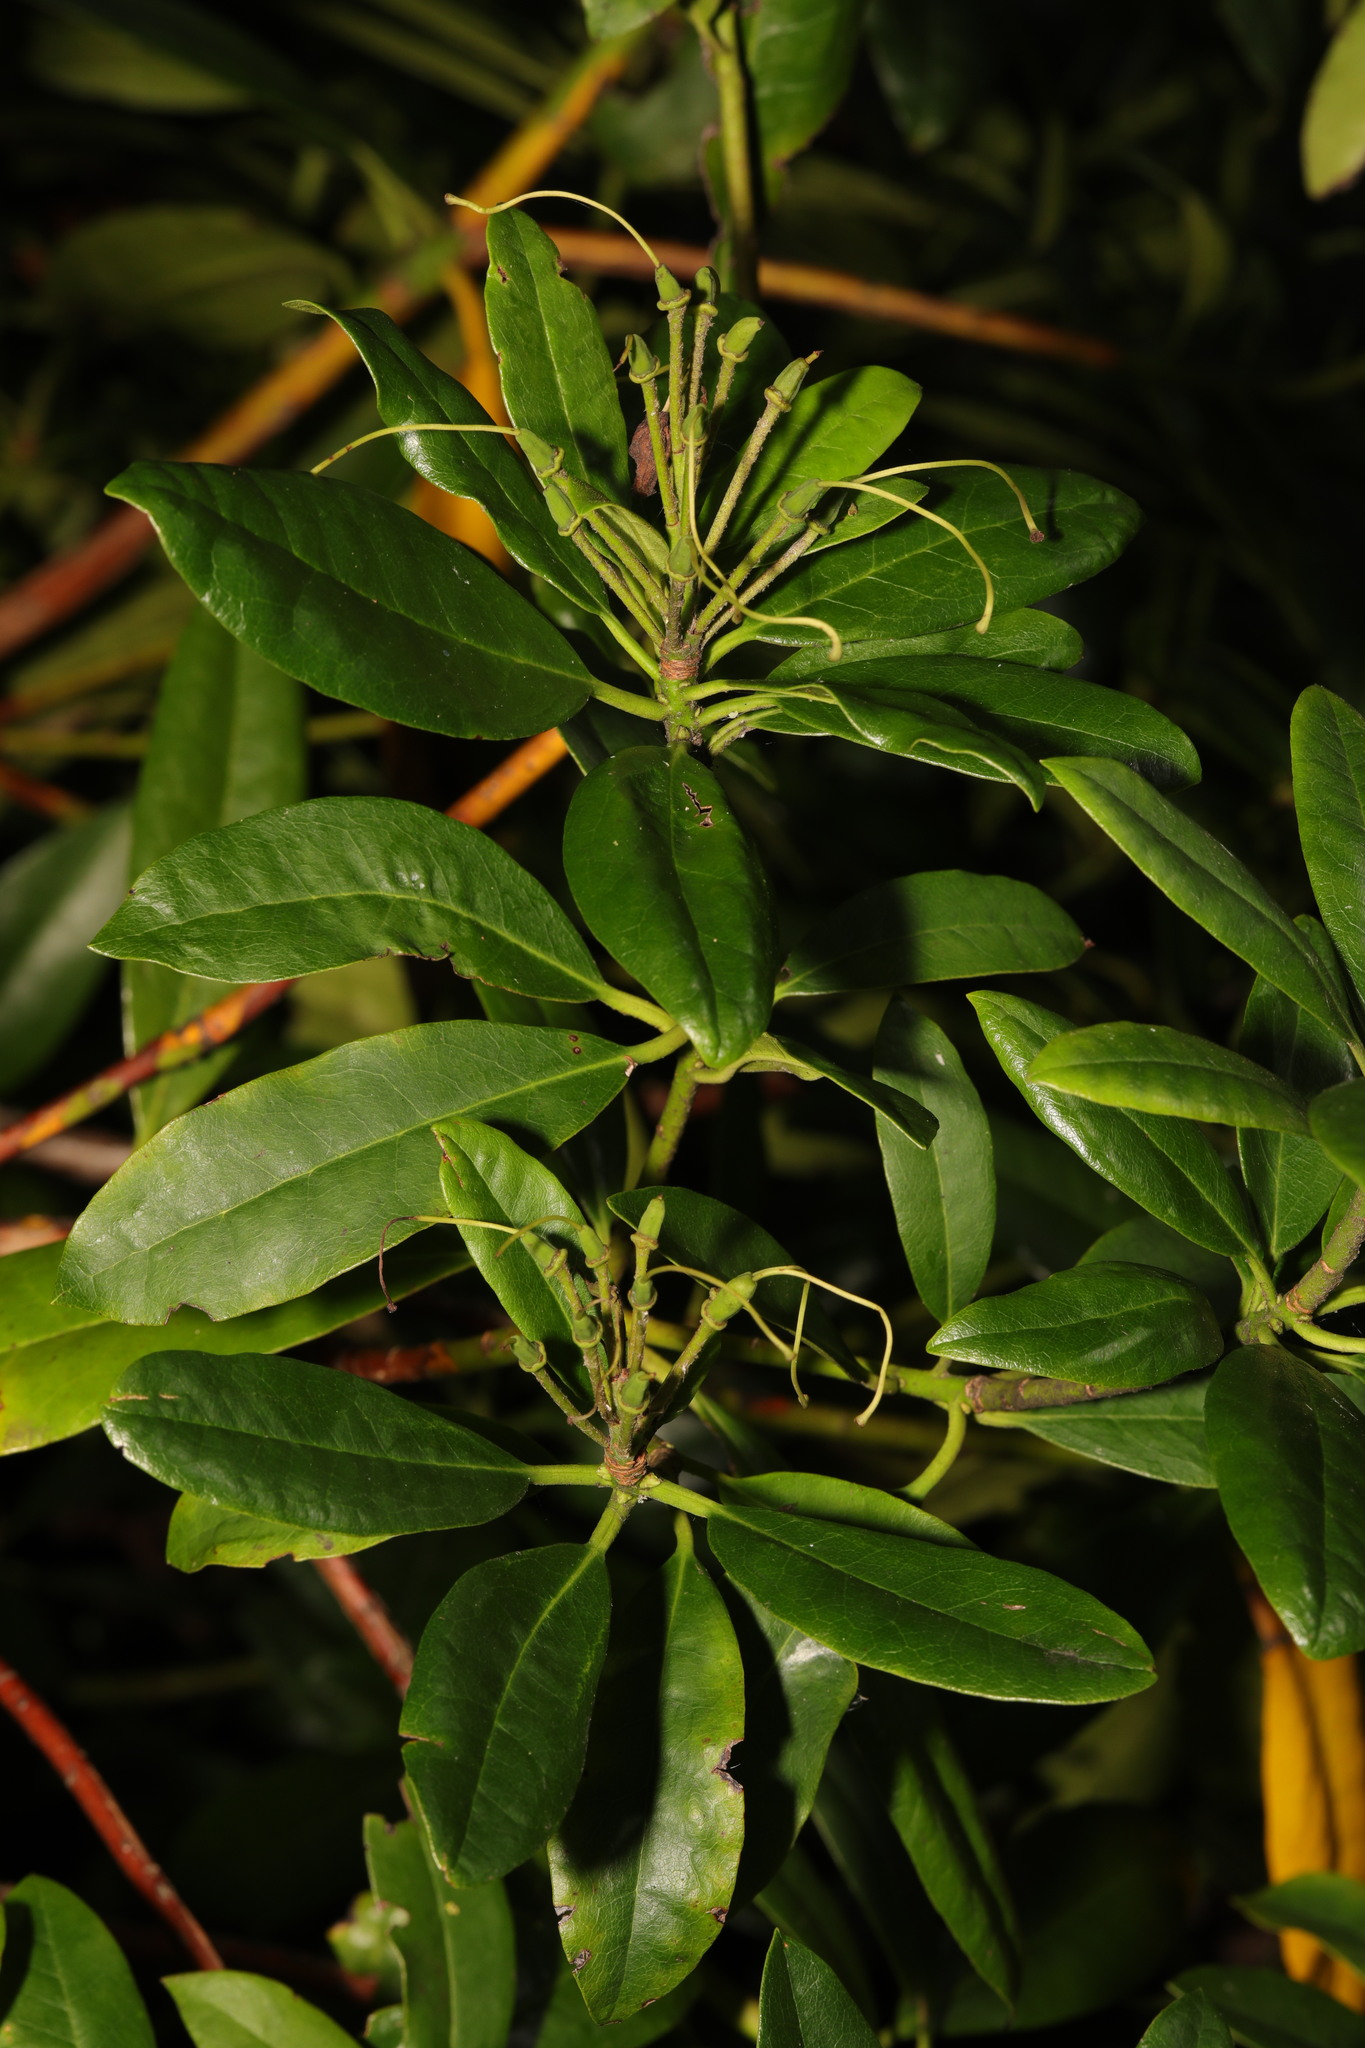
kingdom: Plantae
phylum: Tracheophyta
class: Magnoliopsida
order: Ericales
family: Ericaceae
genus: Rhododendron
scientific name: Rhododendron ponticum
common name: Rhododendron
